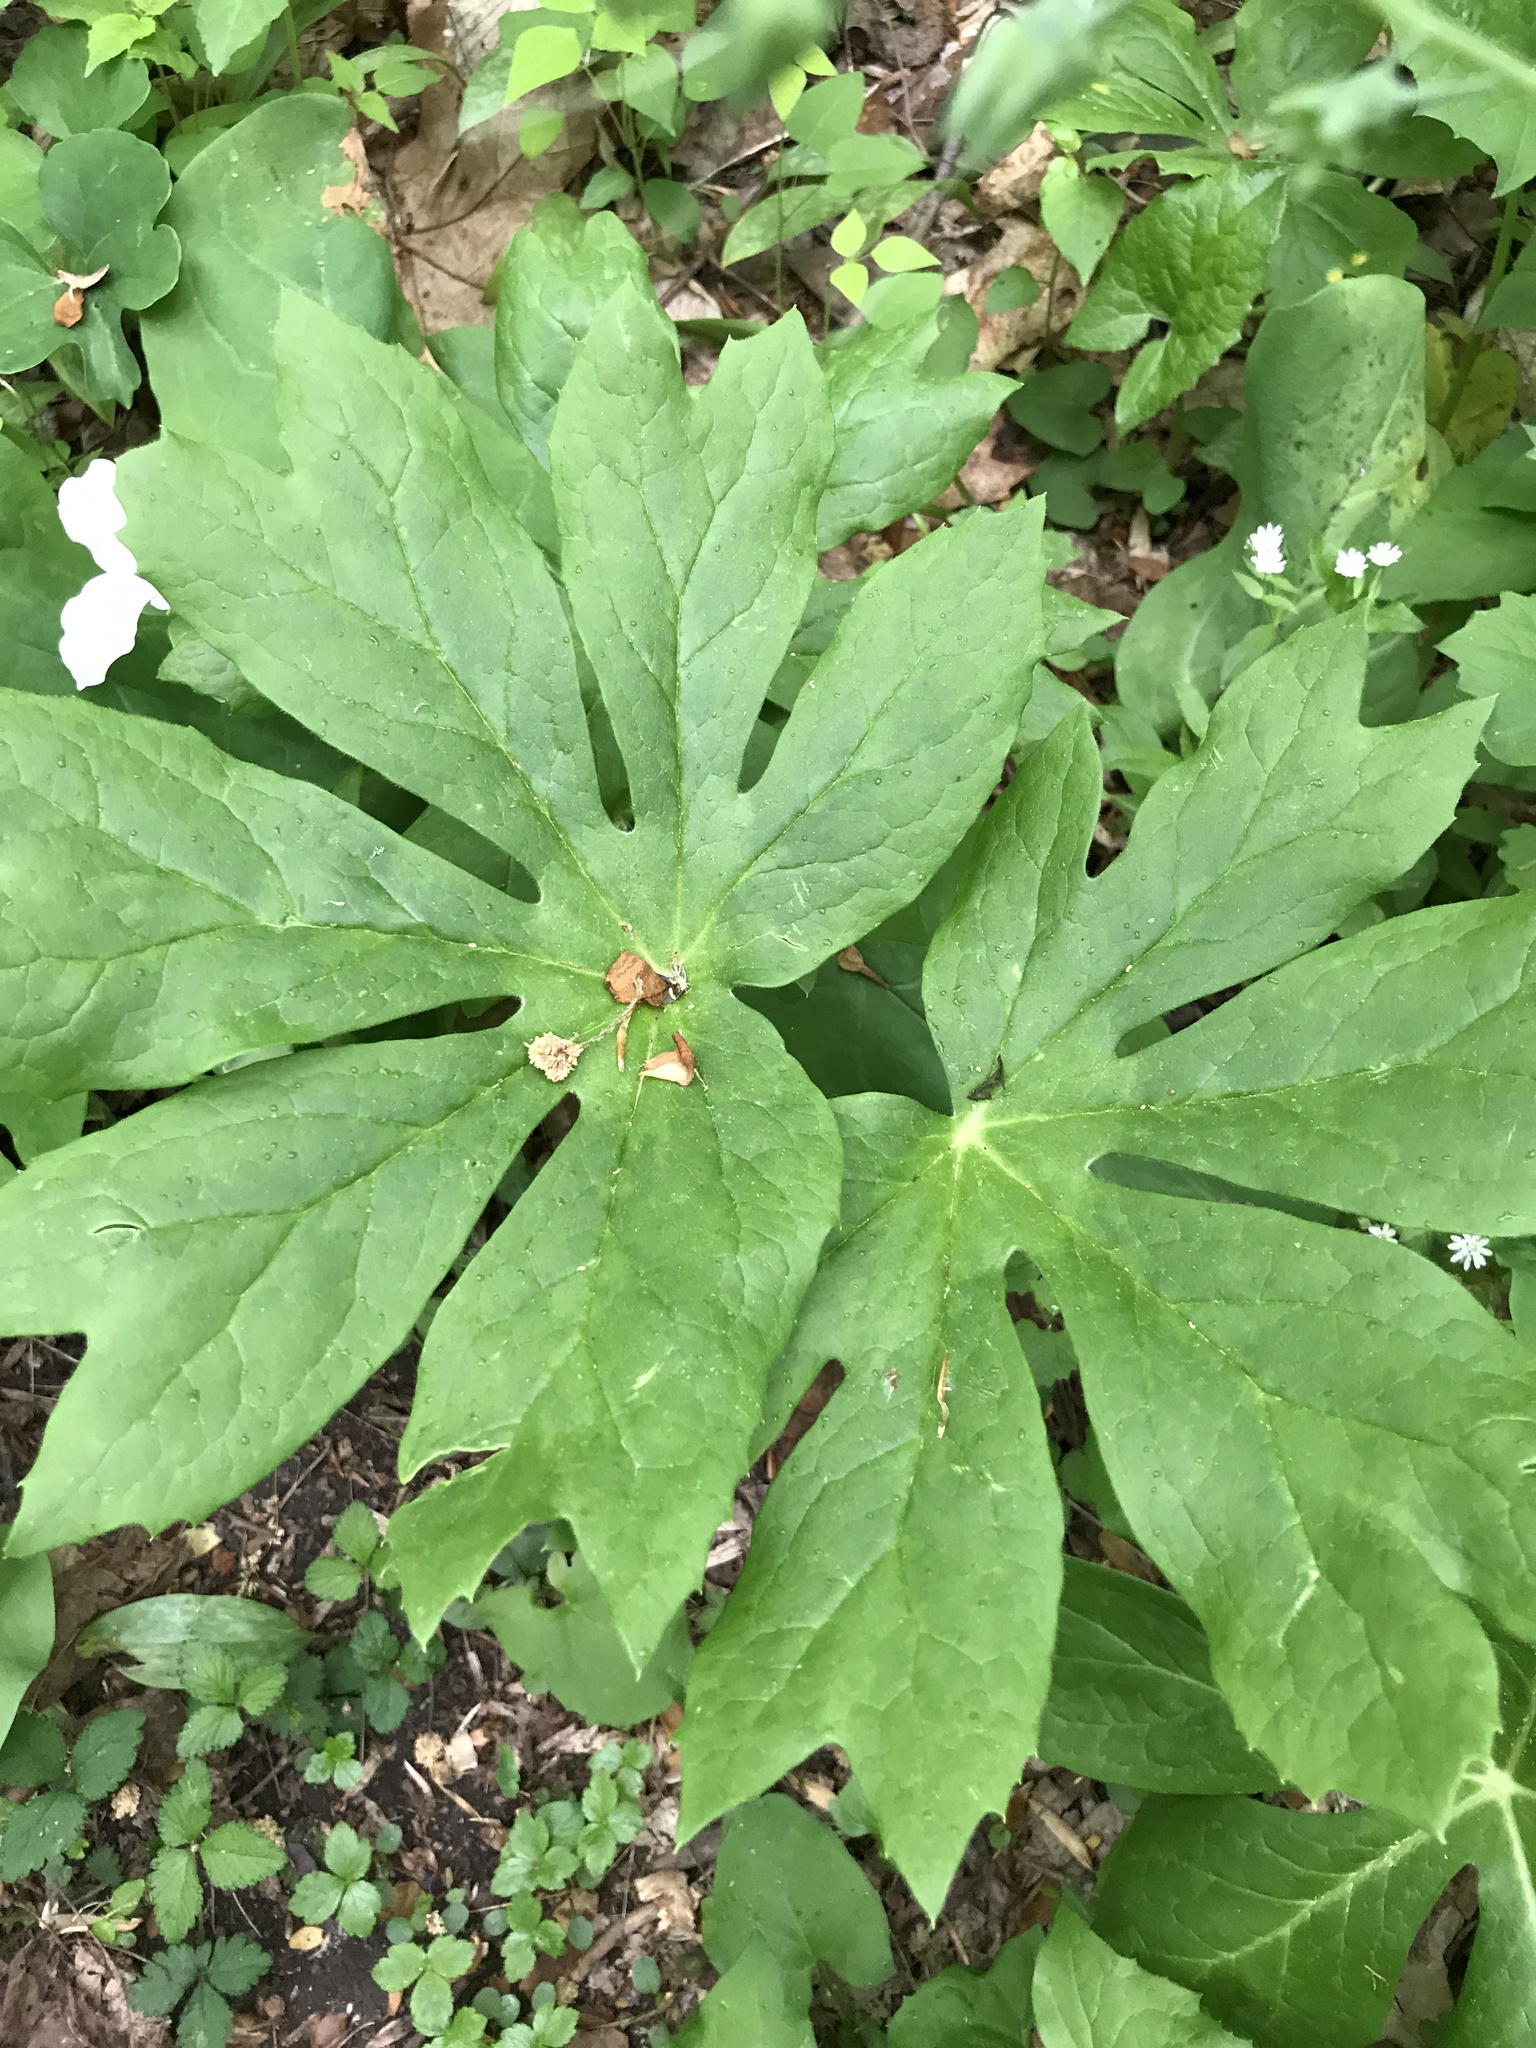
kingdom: Plantae
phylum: Tracheophyta
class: Magnoliopsida
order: Ranunculales
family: Berberidaceae
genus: Podophyllum
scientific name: Podophyllum peltatum
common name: Wild mandrake
